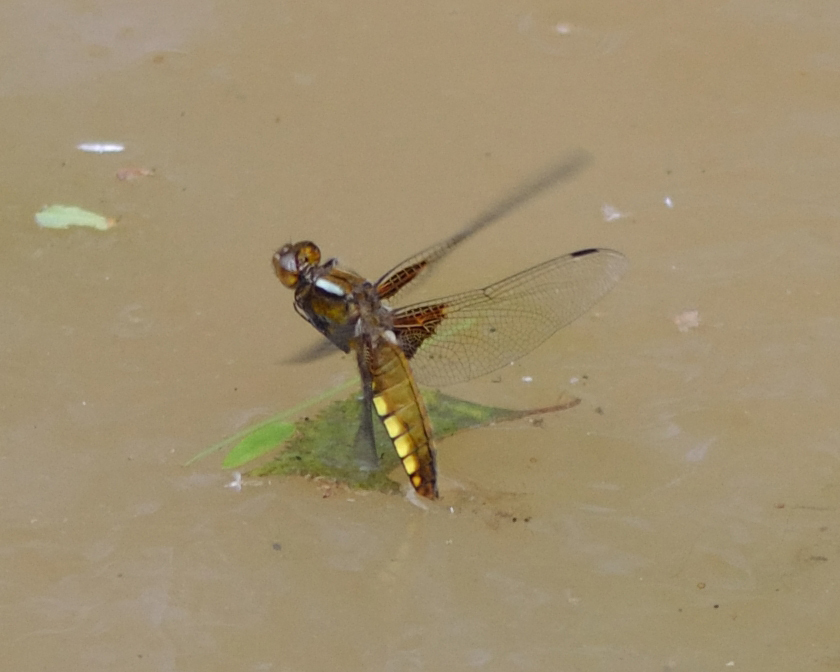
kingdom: Animalia
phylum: Arthropoda
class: Insecta
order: Odonata
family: Libellulidae
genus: Libellula
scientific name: Libellula depressa
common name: Broad-bodied chaser
